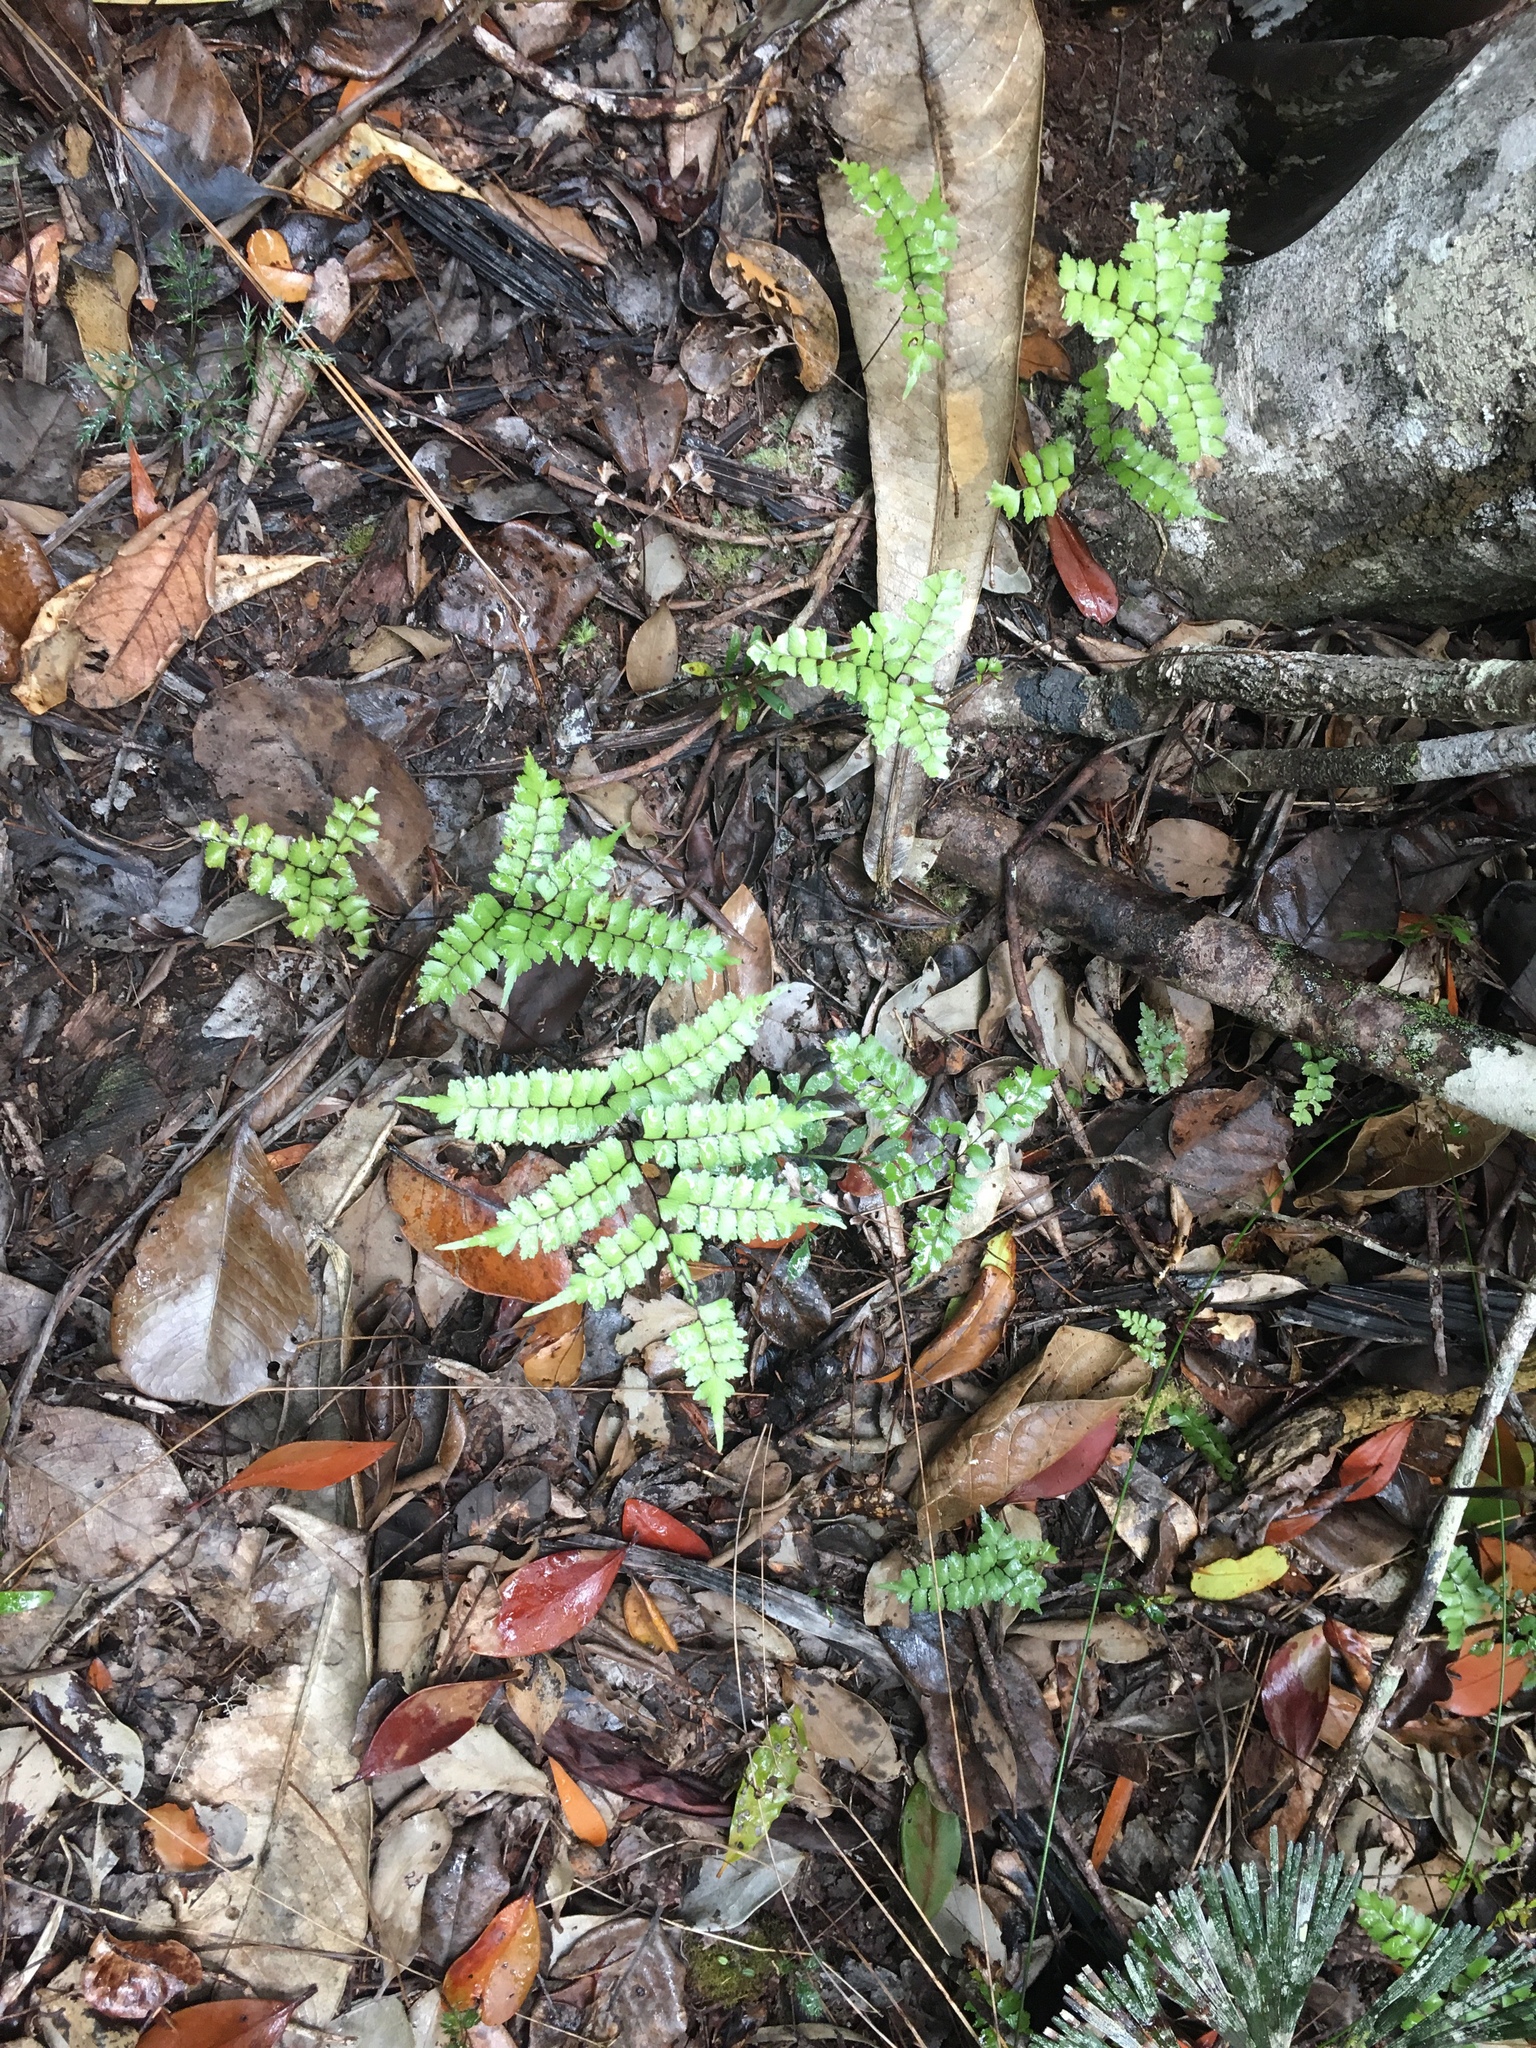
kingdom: Plantae
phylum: Tracheophyta
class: Polypodiopsida
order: Polypodiales
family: Lindsaeaceae
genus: Lindsaea
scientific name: Lindsaea nervosa
